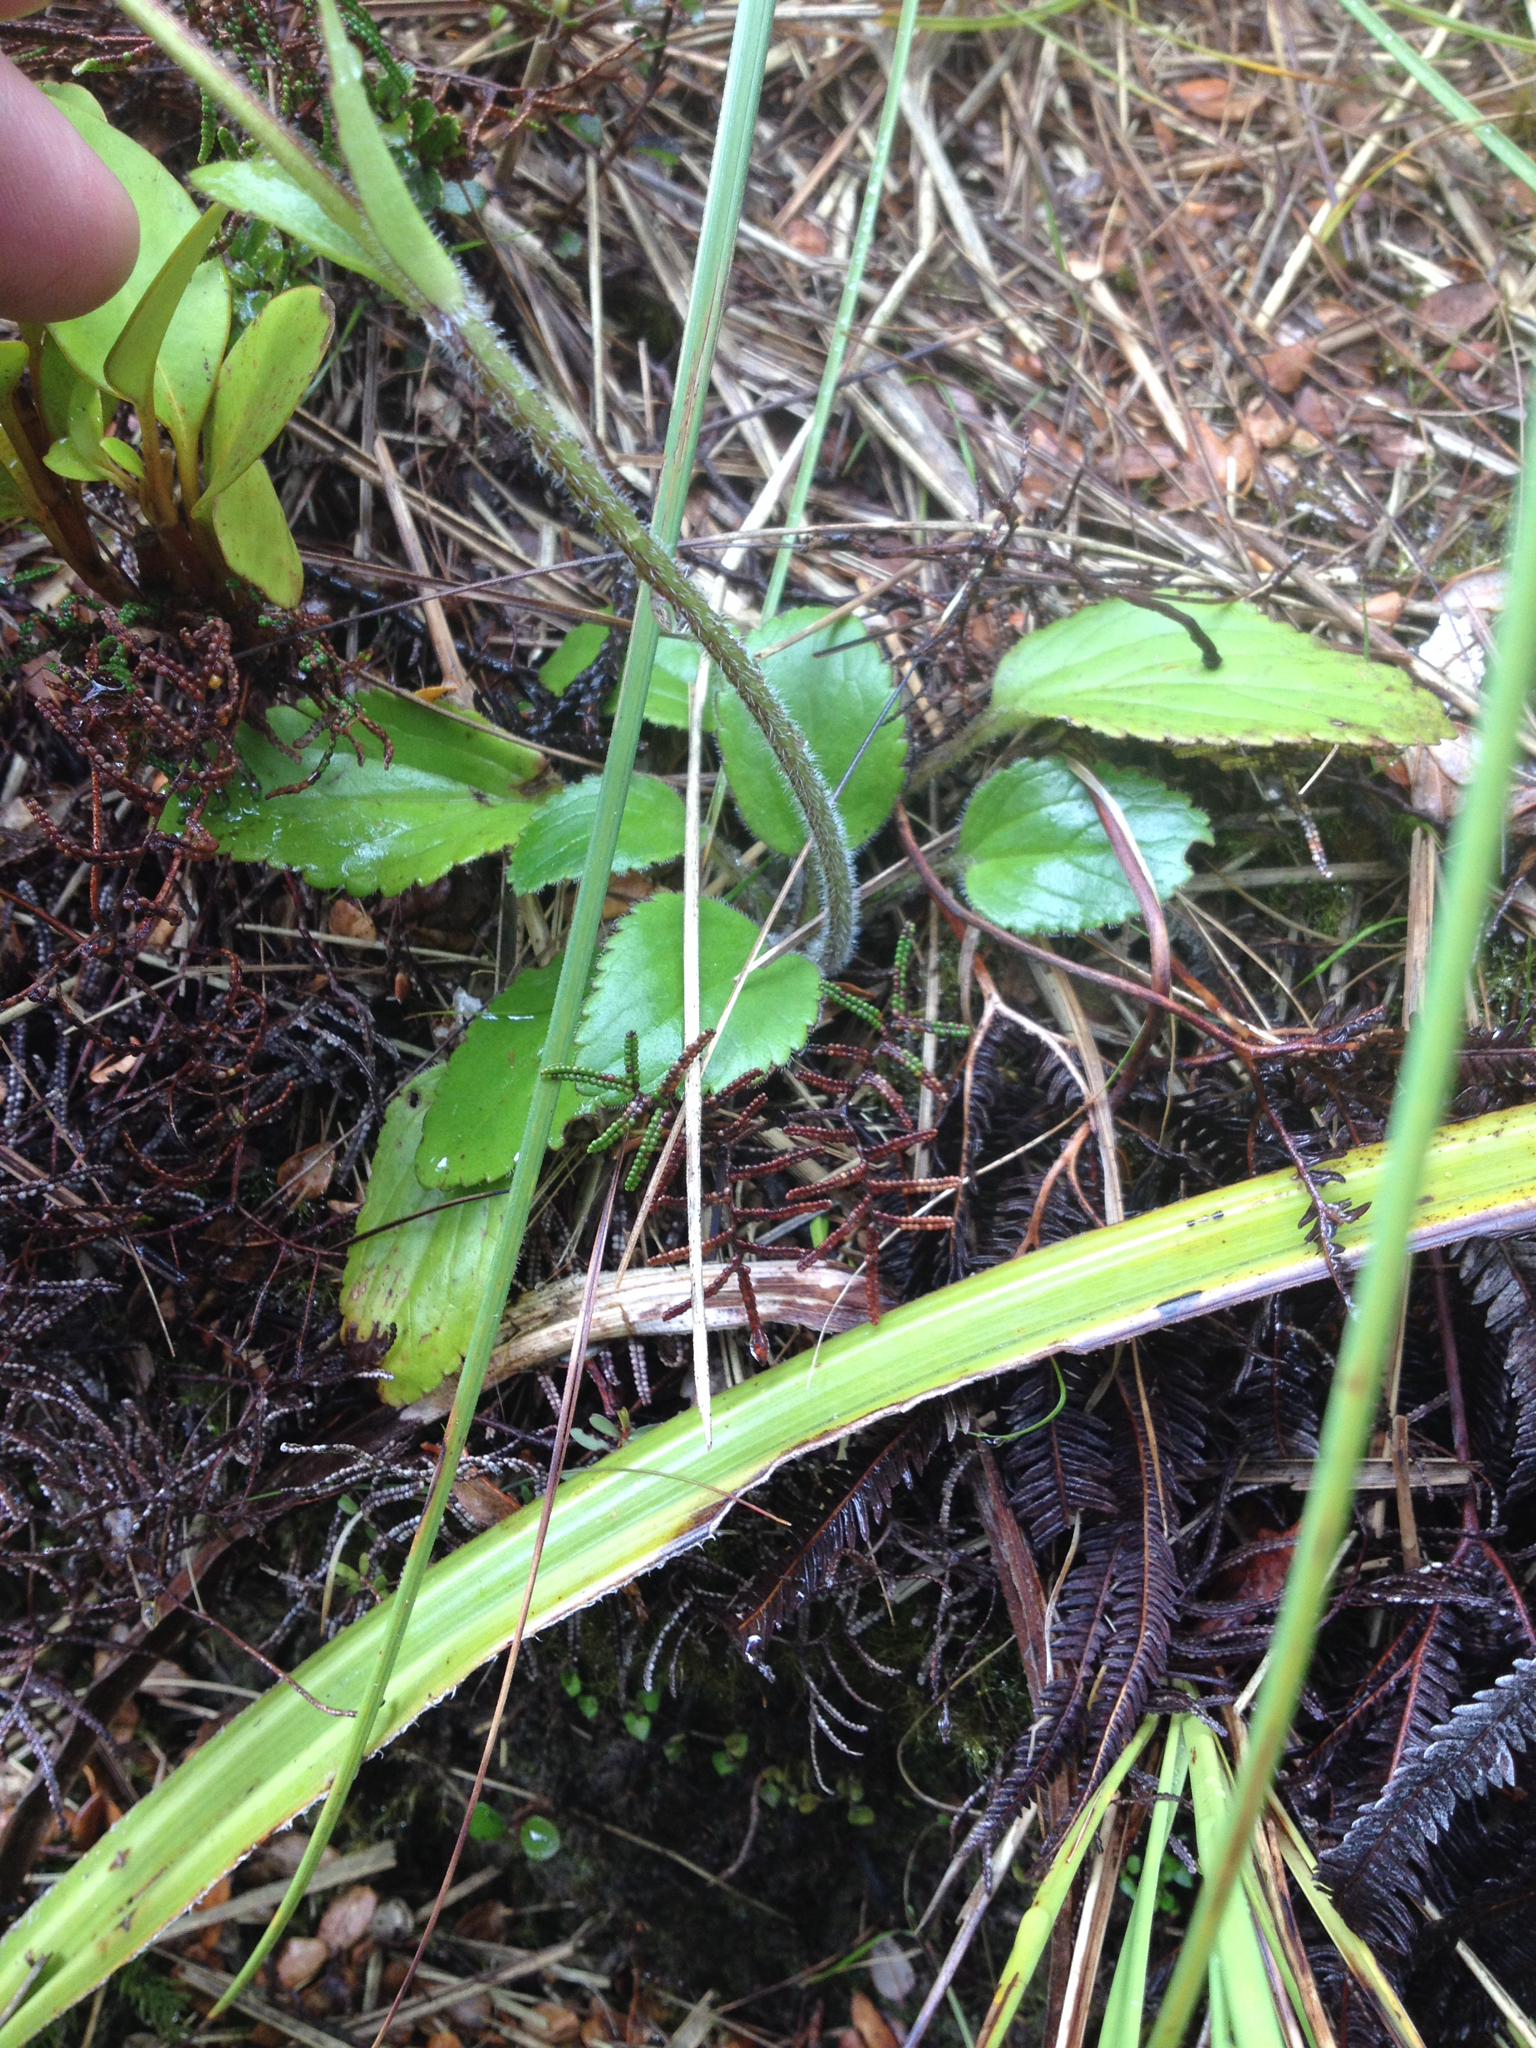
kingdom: Plantae
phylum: Tracheophyta
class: Magnoliopsida
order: Lamiales
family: Plantaginaceae
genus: Ourisia
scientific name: Ourisia macrophylla
